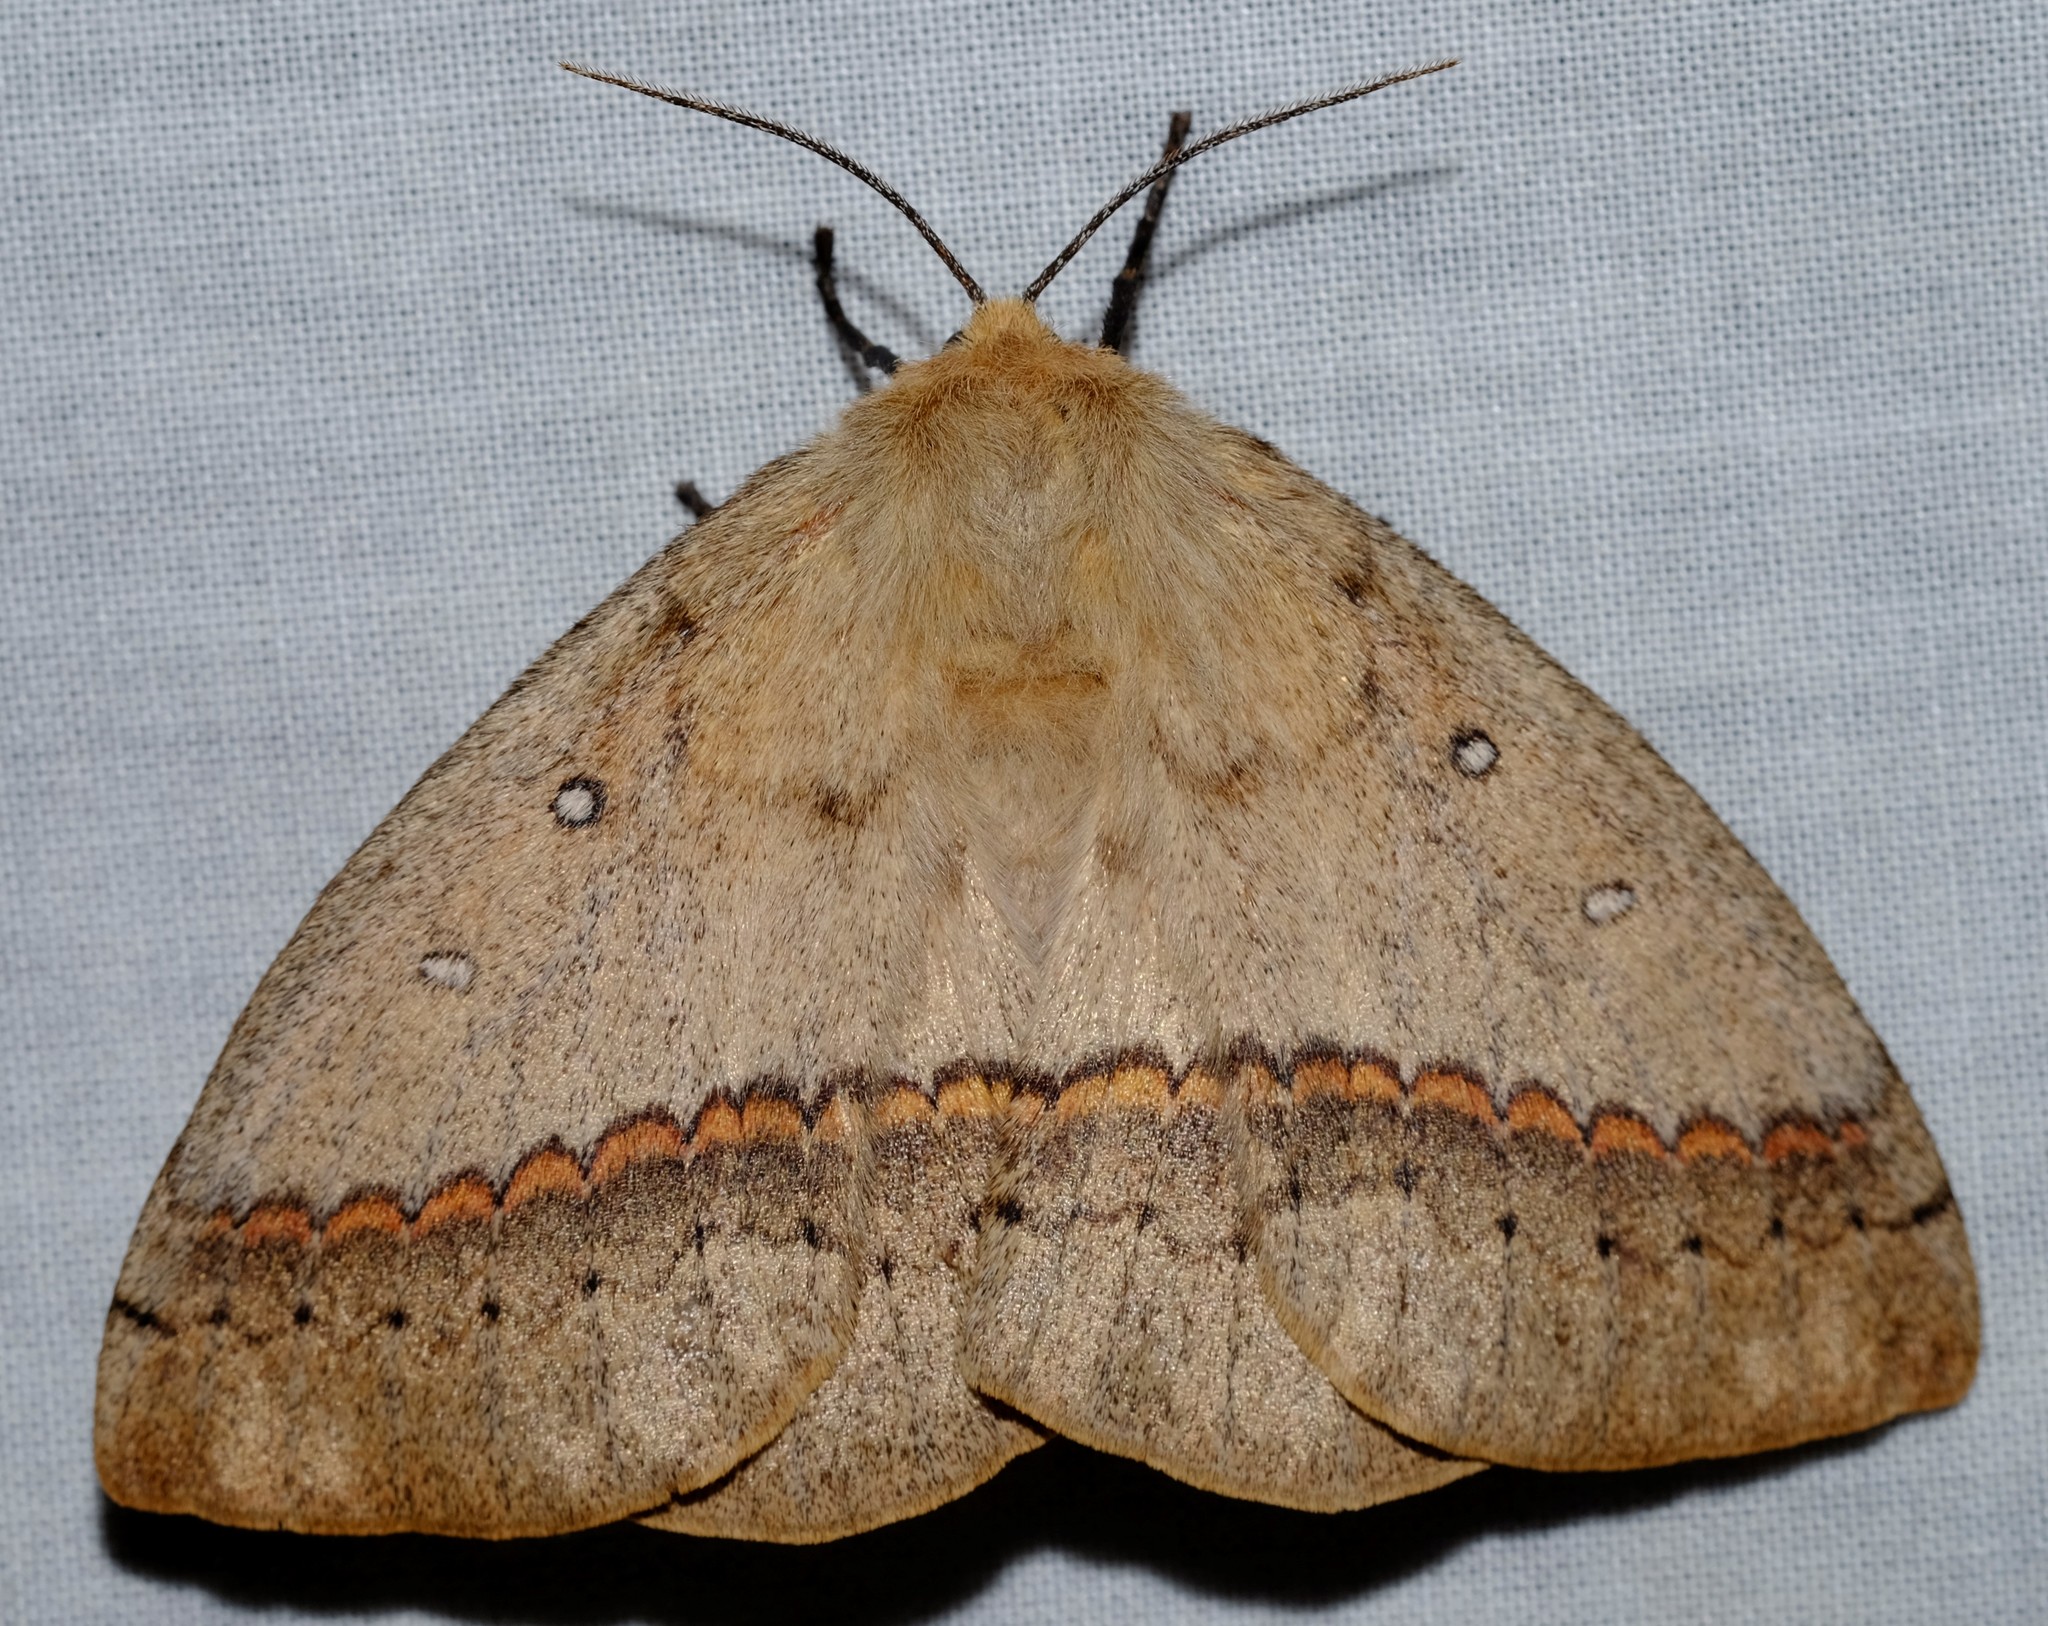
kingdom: Animalia
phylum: Arthropoda
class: Insecta
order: Lepidoptera
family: Anthelidae
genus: Anthela
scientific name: Anthela nicothoe
